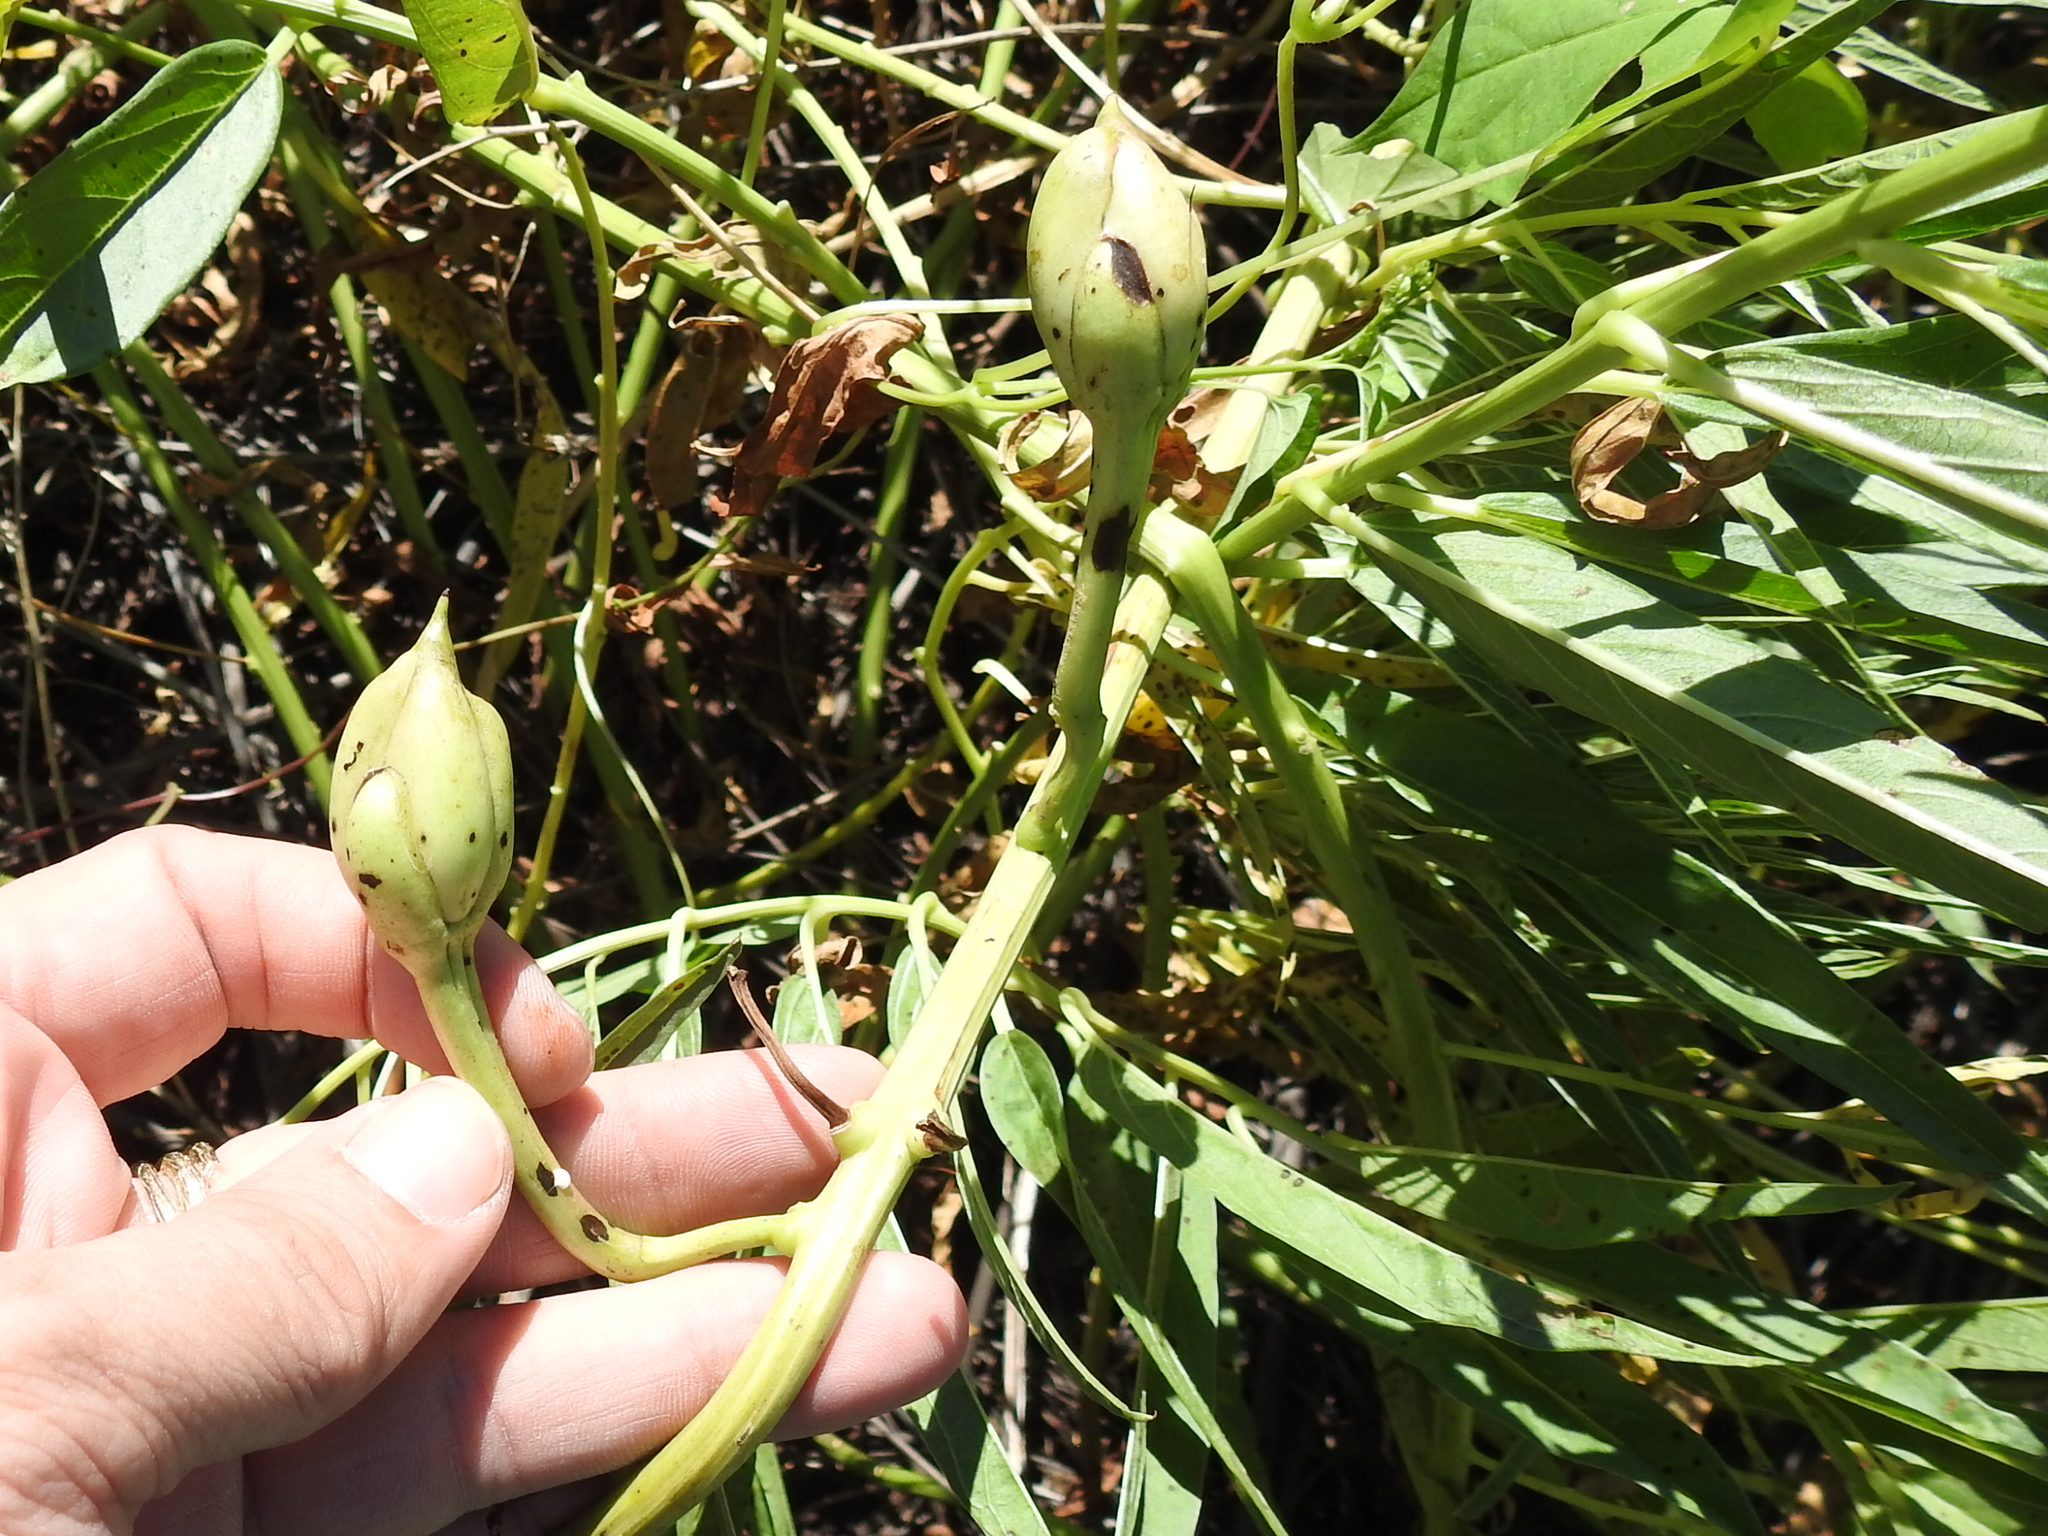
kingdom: Plantae
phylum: Tracheophyta
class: Magnoliopsida
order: Solanales
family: Convolvulaceae
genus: Ipomoea
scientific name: Ipomoea longifolia
